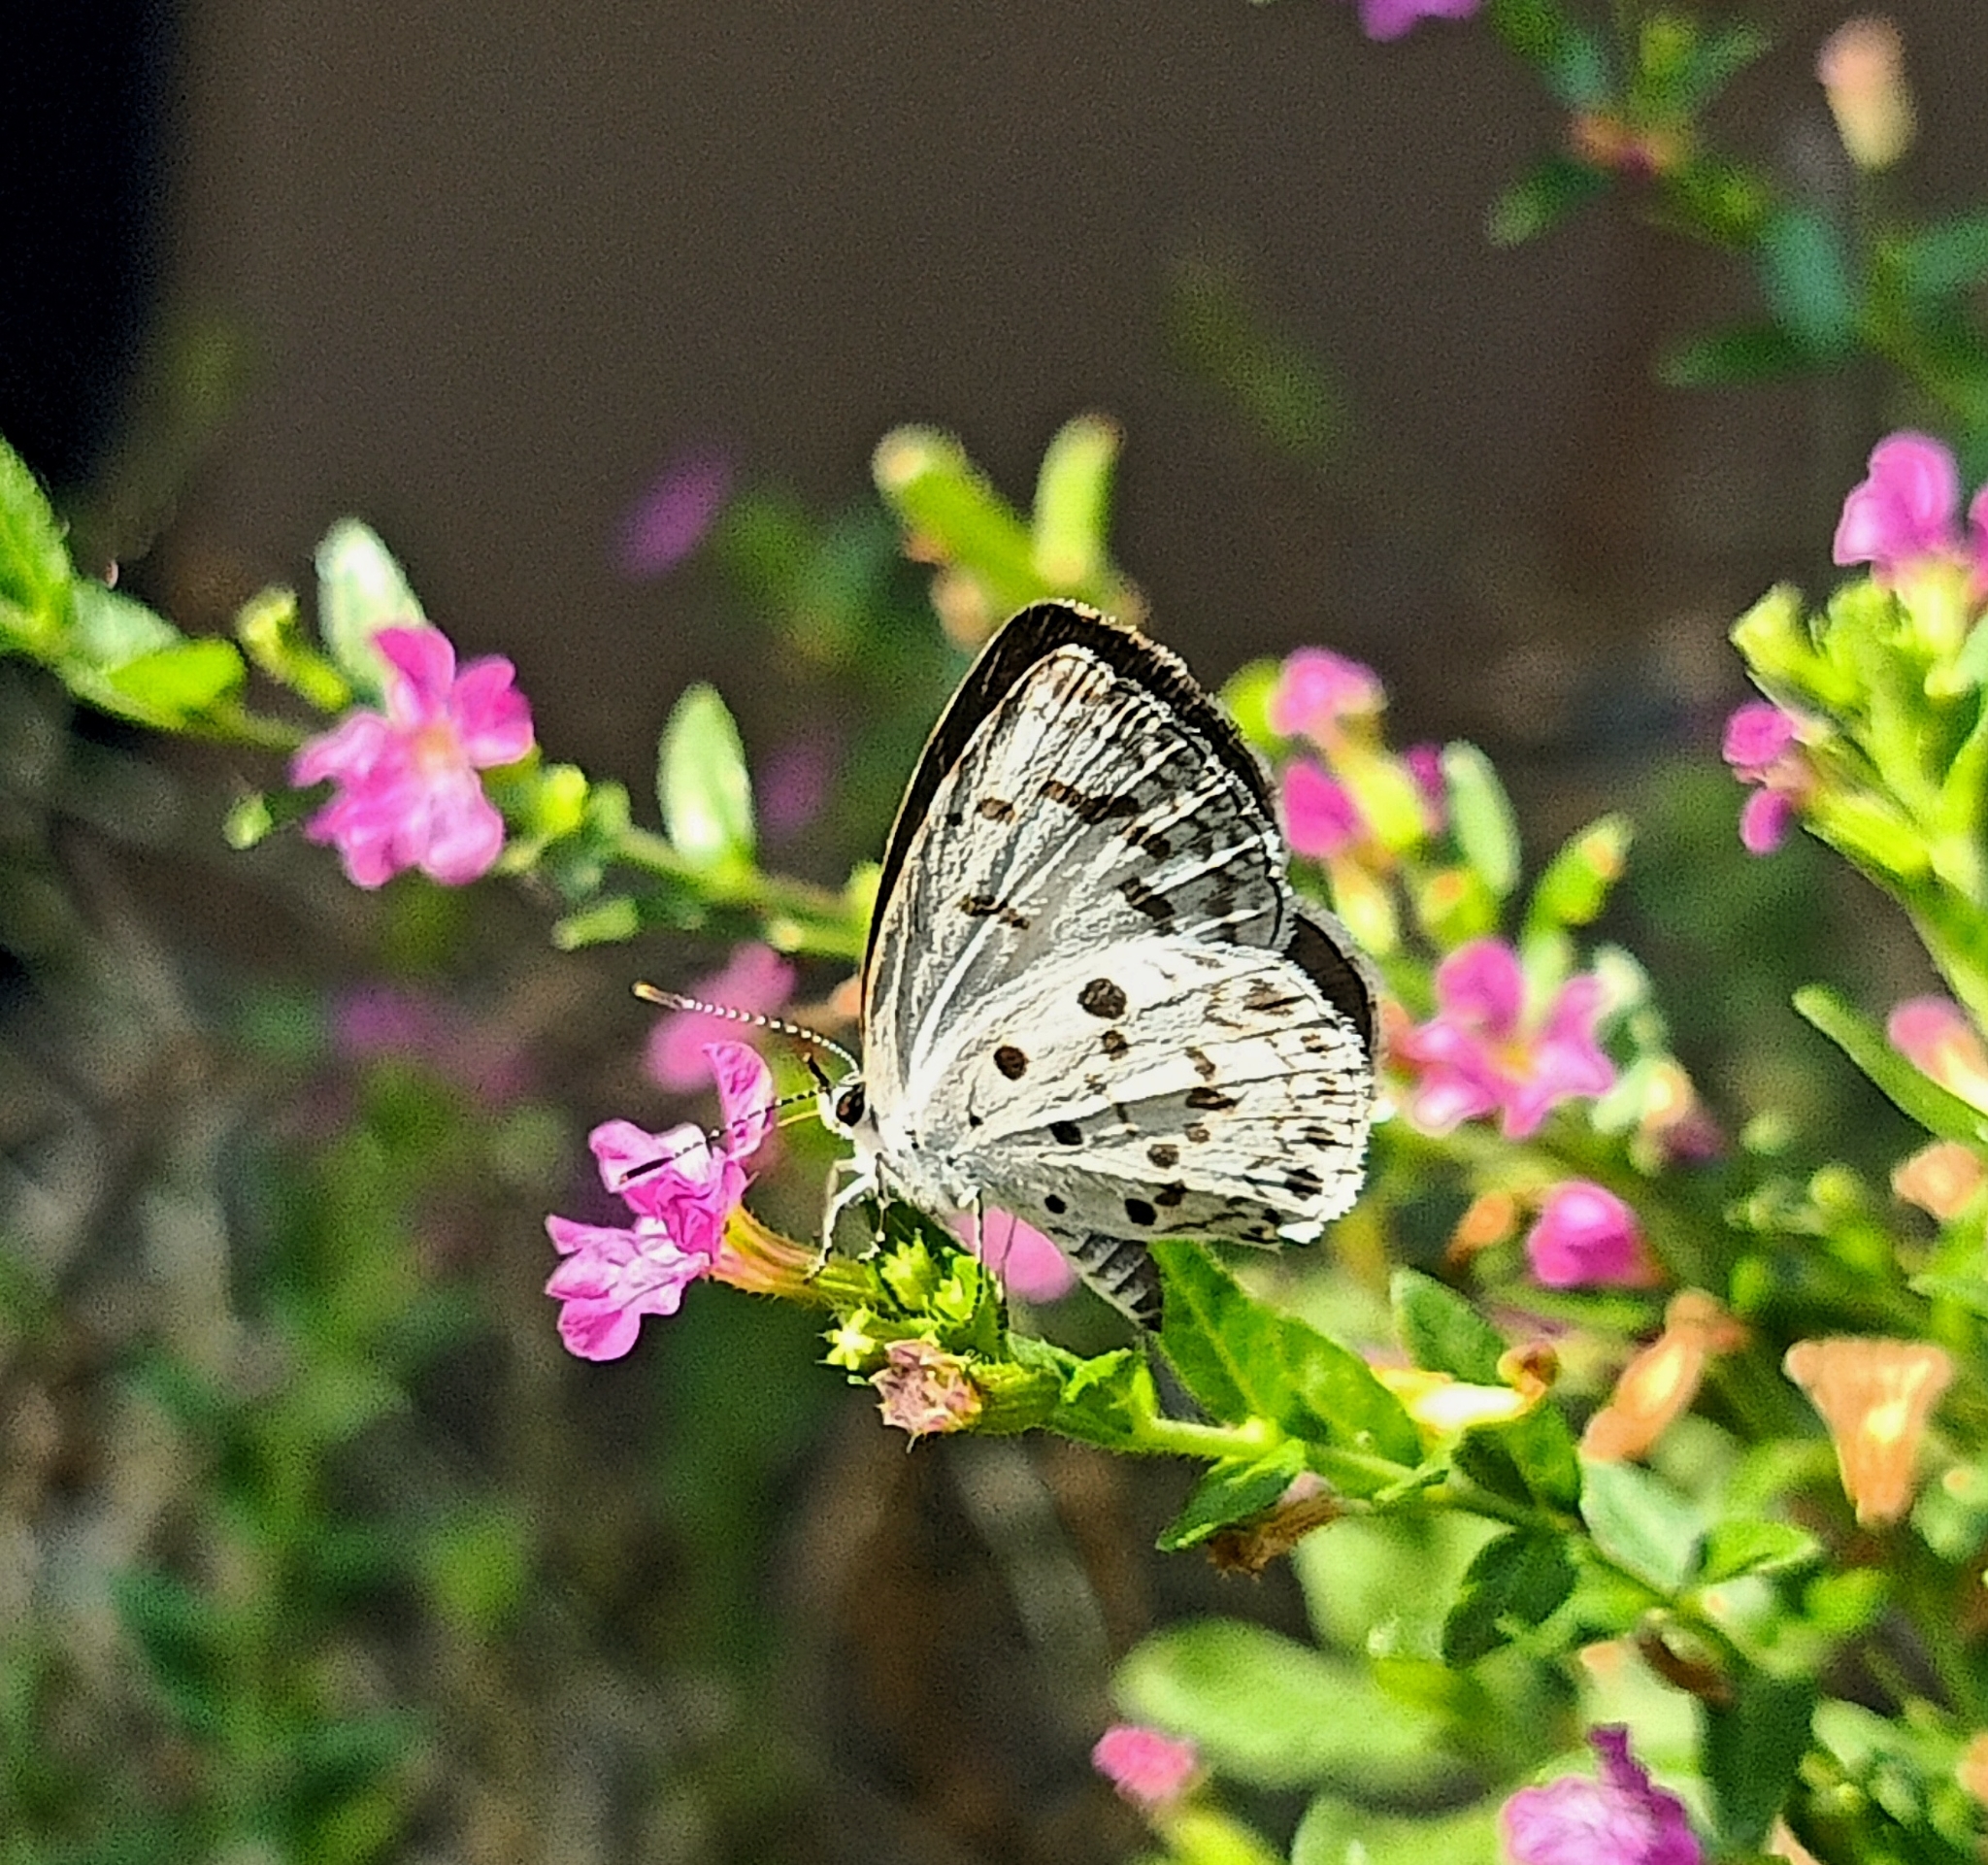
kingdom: Animalia
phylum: Arthropoda
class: Insecta
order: Lepidoptera
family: Lycaenidae
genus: Acytolepis
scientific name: Acytolepis puspa
